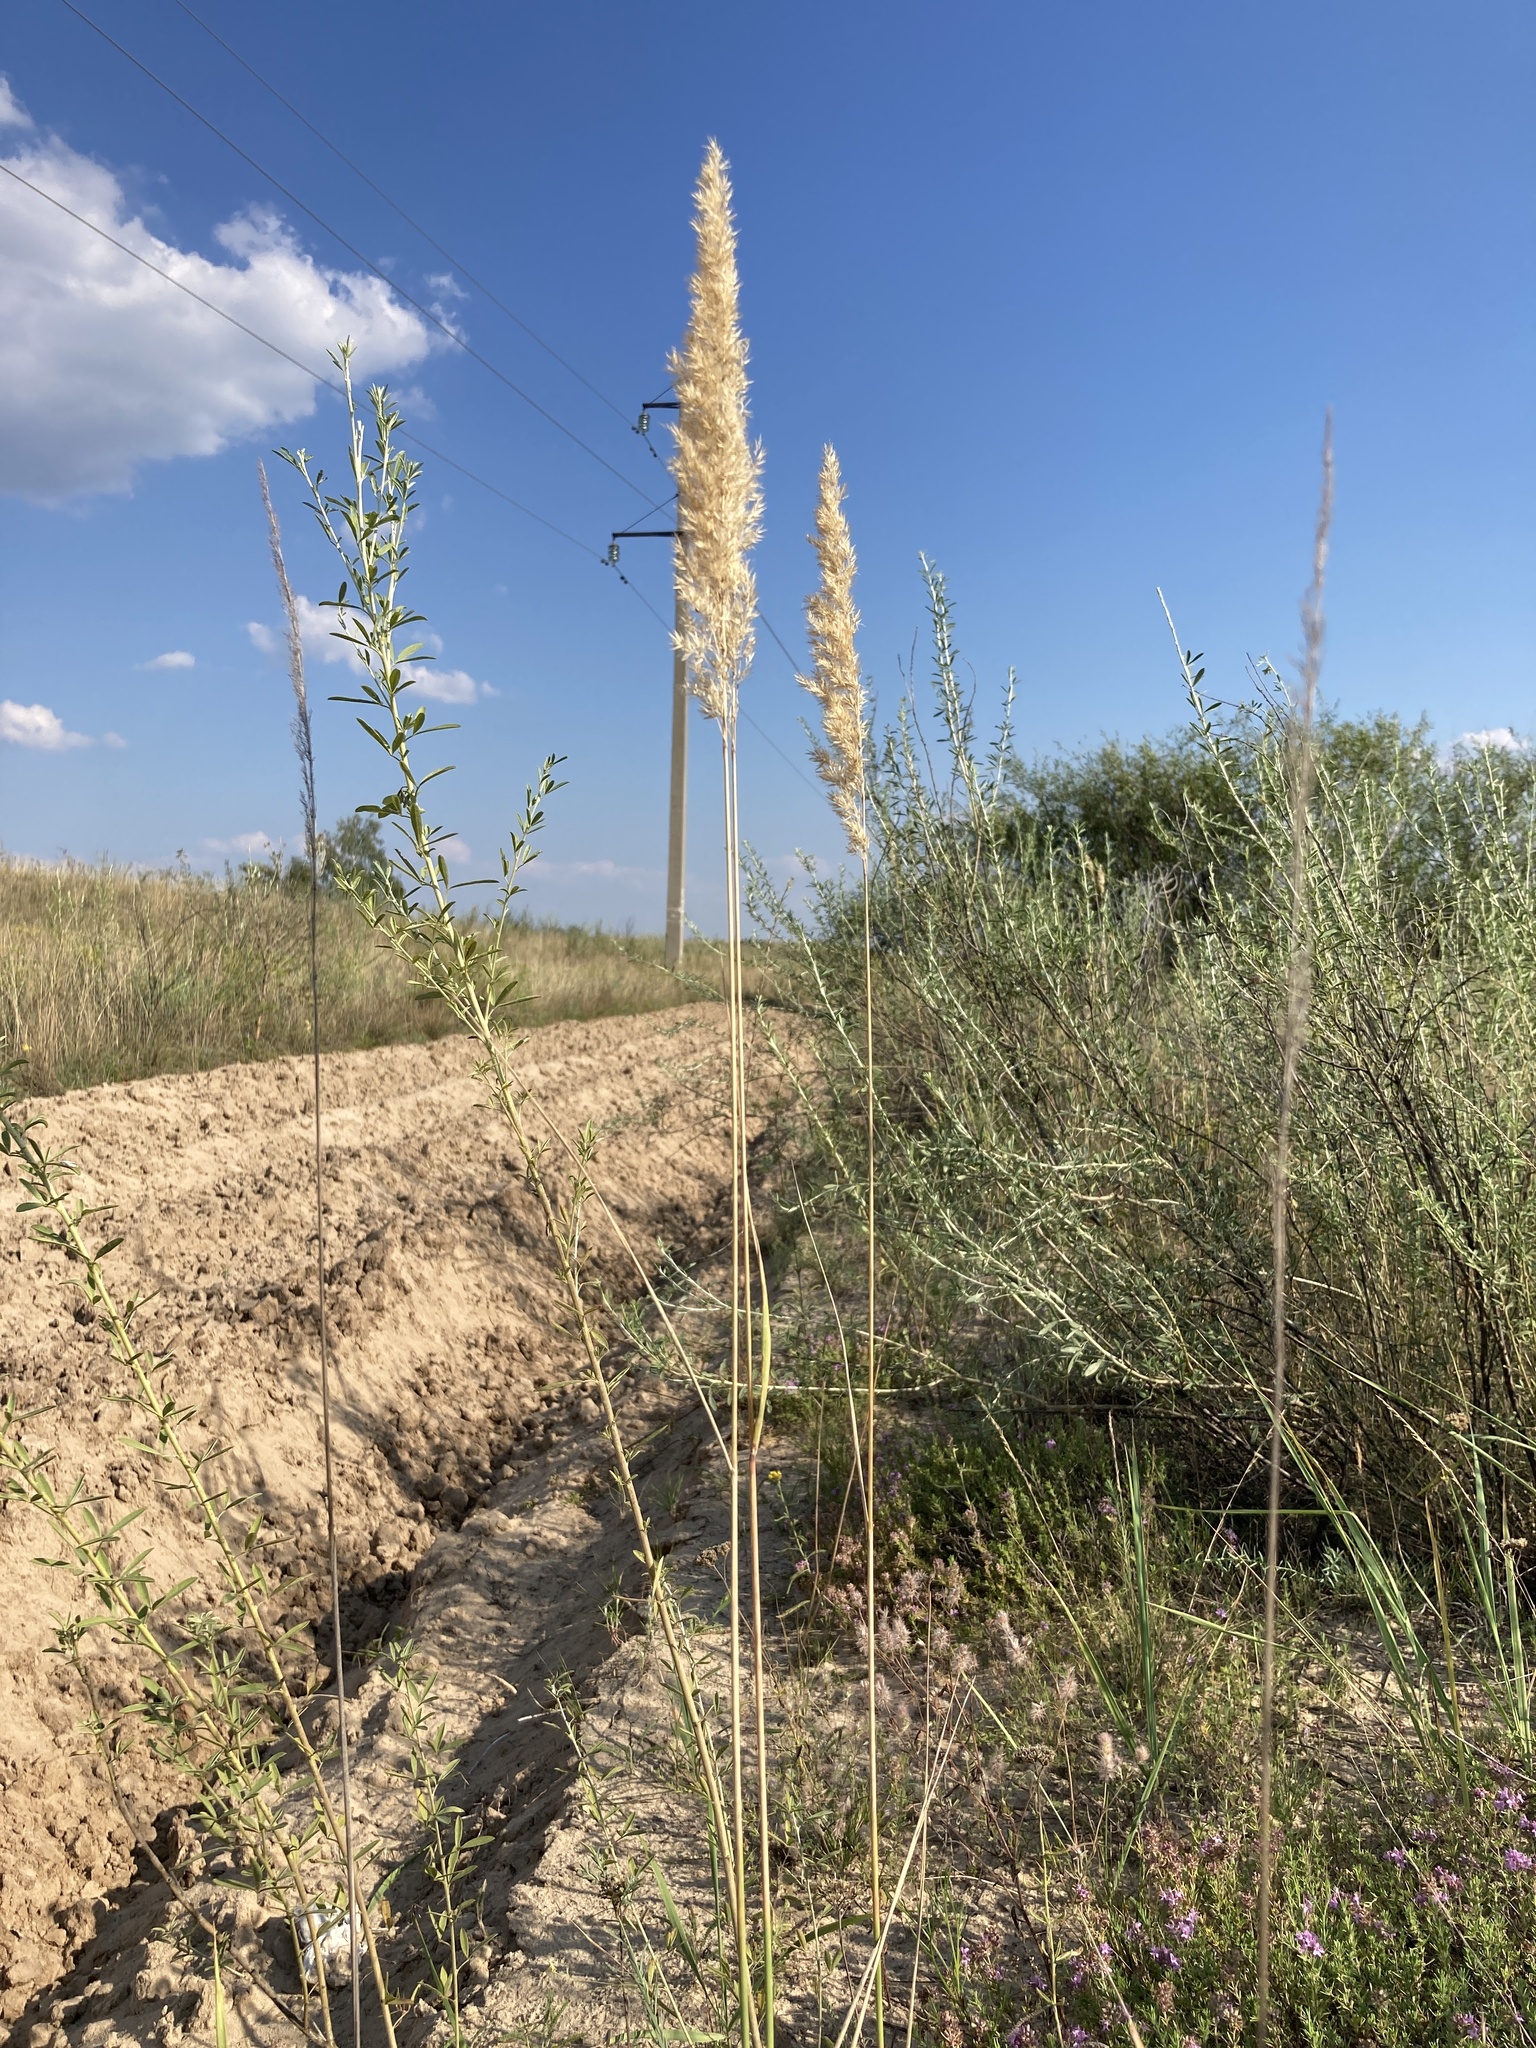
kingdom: Plantae
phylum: Tracheophyta
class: Liliopsida
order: Poales
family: Poaceae
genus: Calamagrostis
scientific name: Calamagrostis epigejos
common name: Wood small-reed
